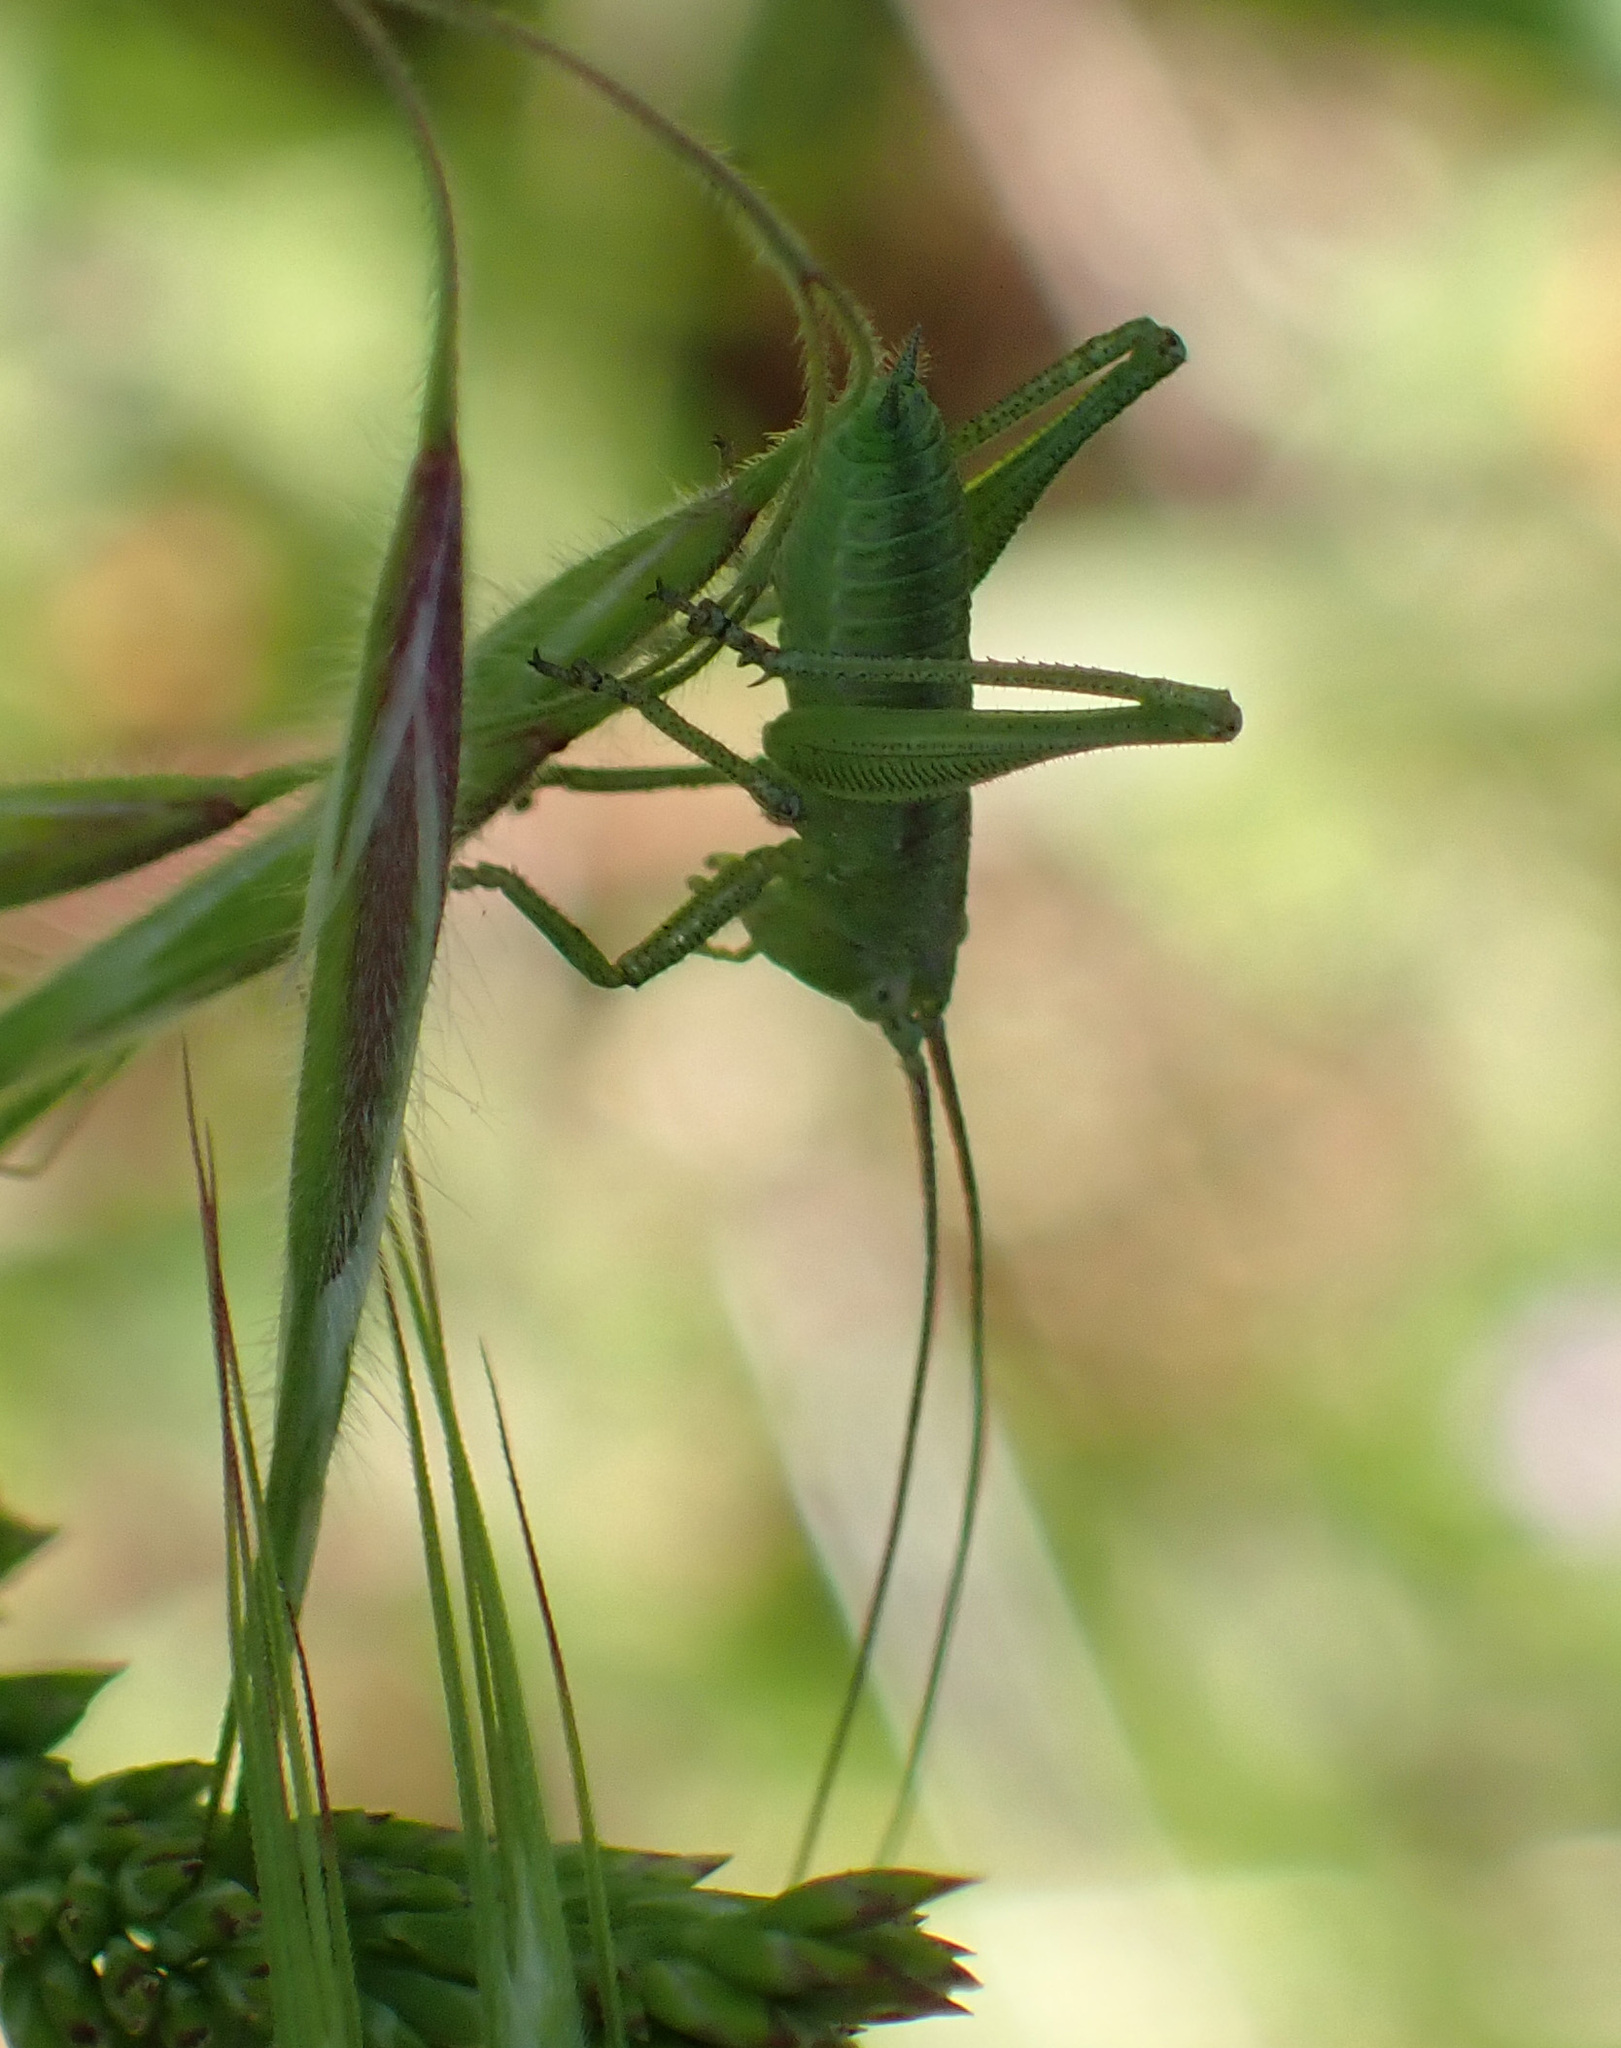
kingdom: Animalia
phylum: Arthropoda
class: Insecta
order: Orthoptera
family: Tettigoniidae
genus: Tettigonia
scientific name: Tettigonia viridissima
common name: Great green bush-cricket
